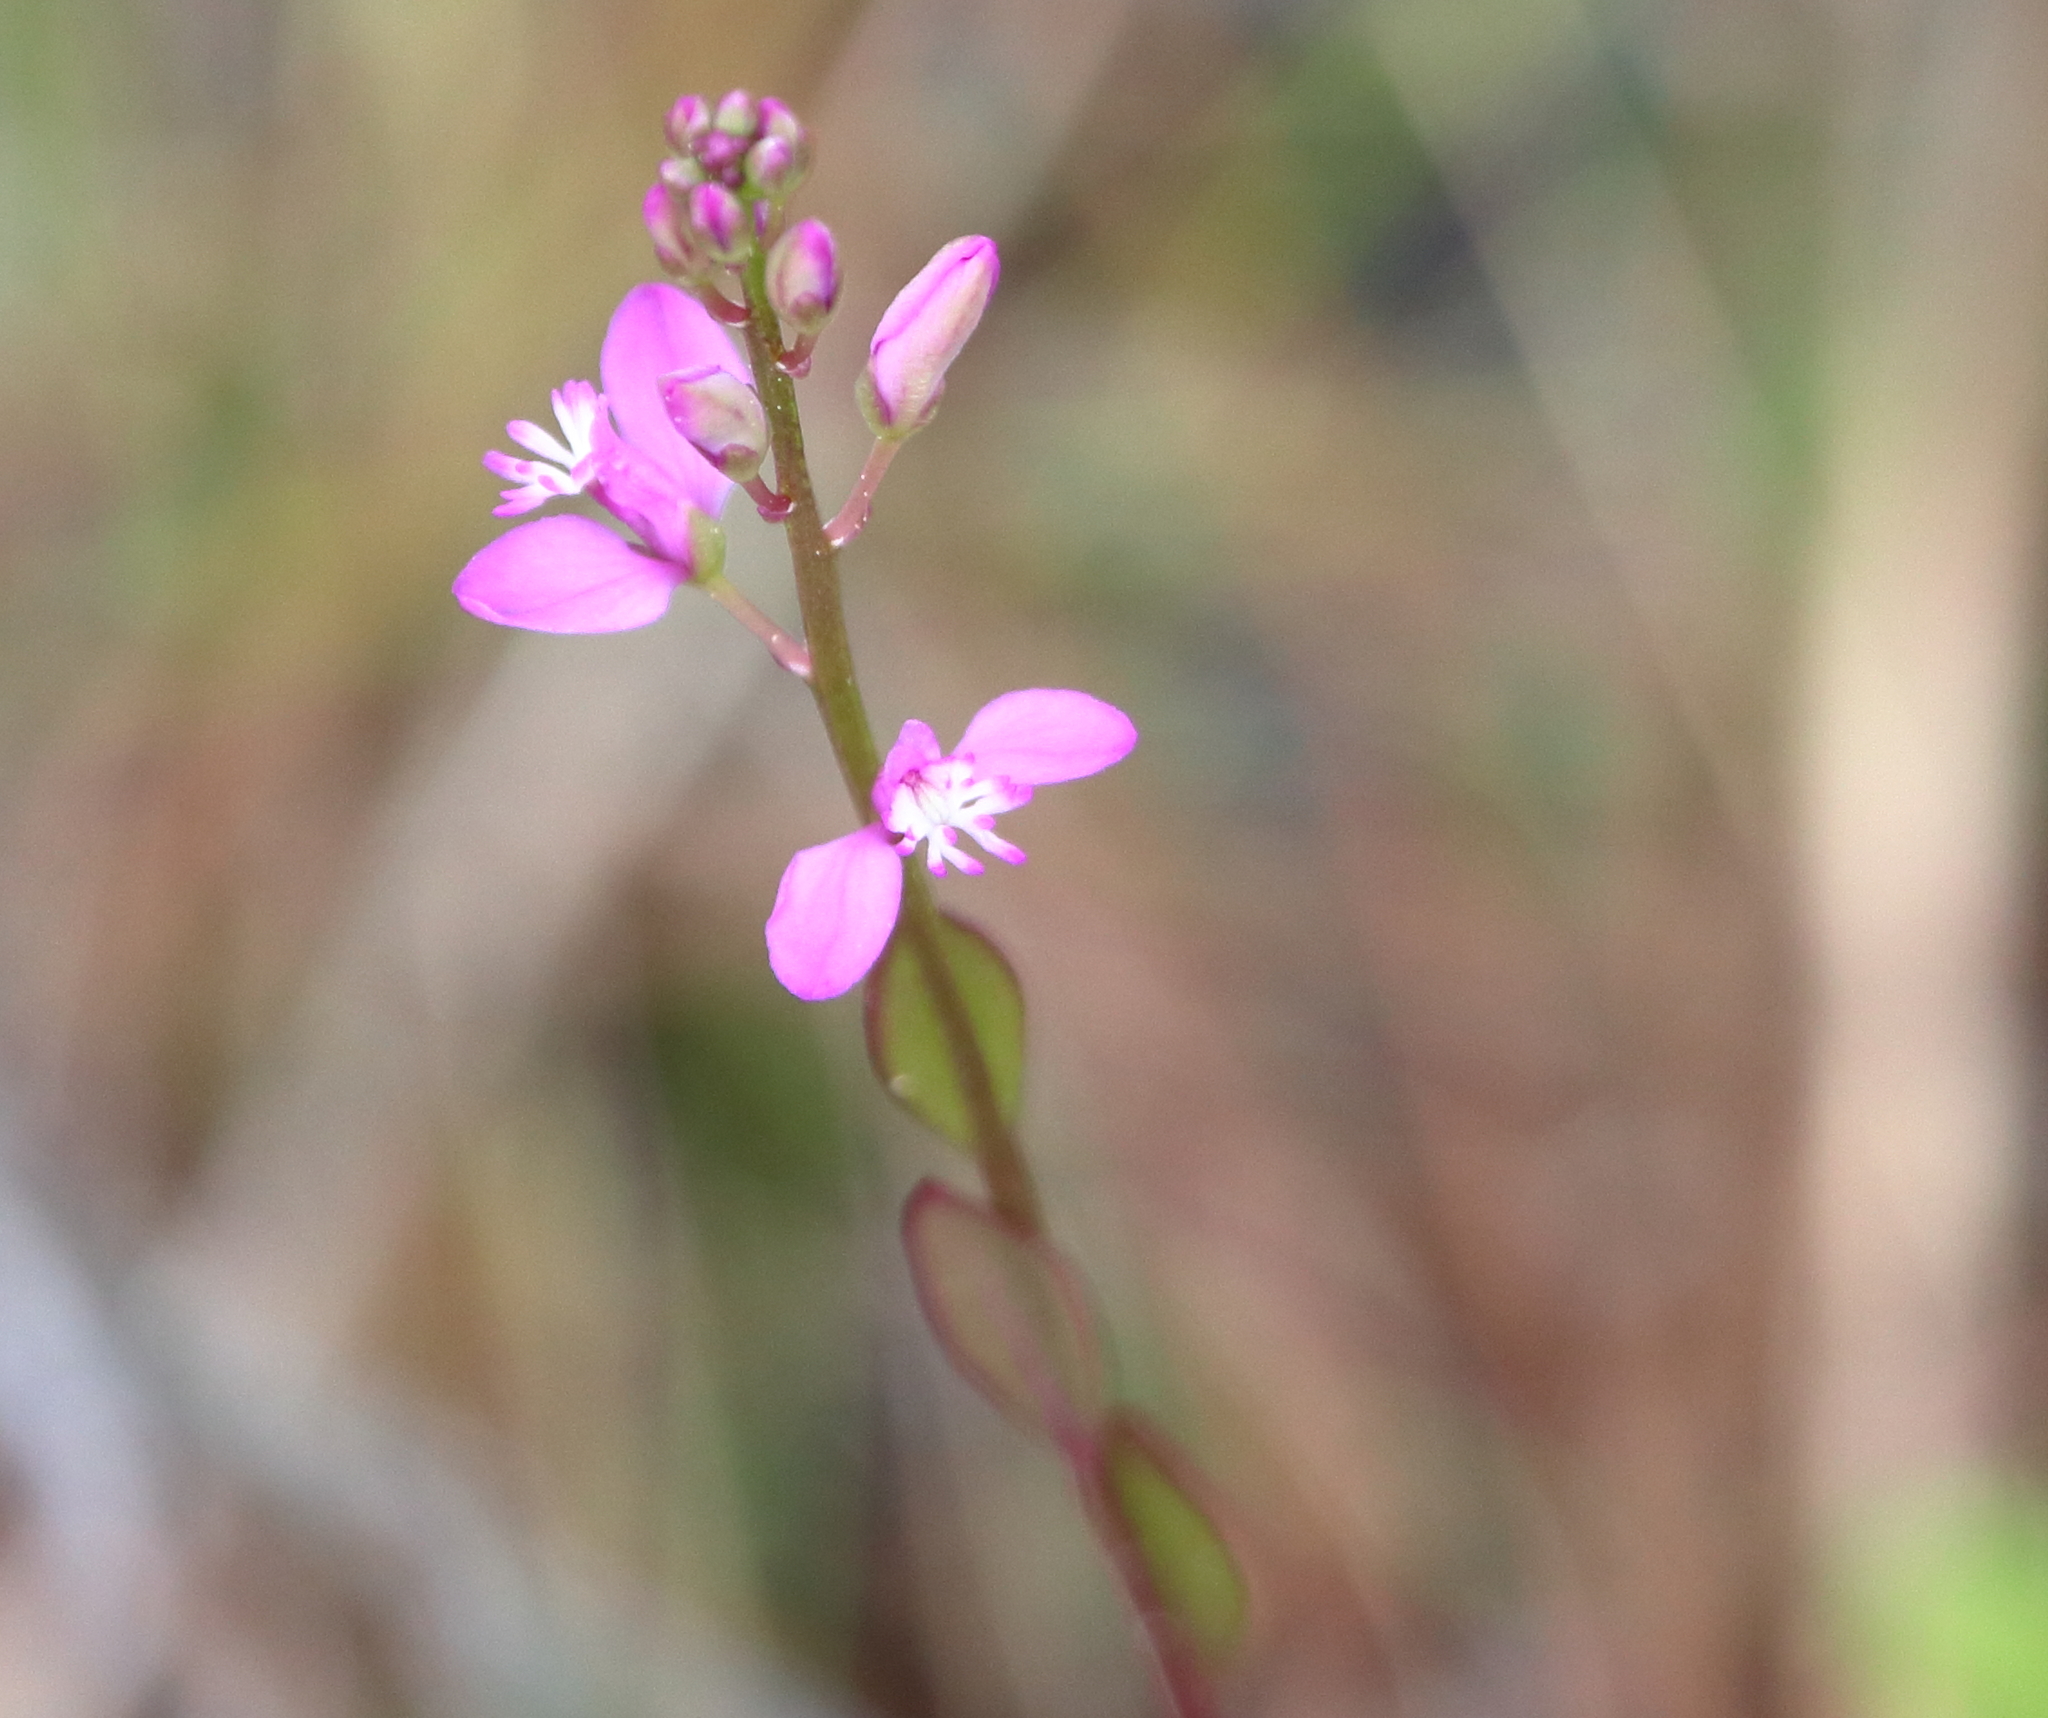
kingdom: Plantae
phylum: Tracheophyta
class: Magnoliopsida
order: Fabales
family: Polygalaceae
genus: Polygala
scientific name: Polygala crenata
